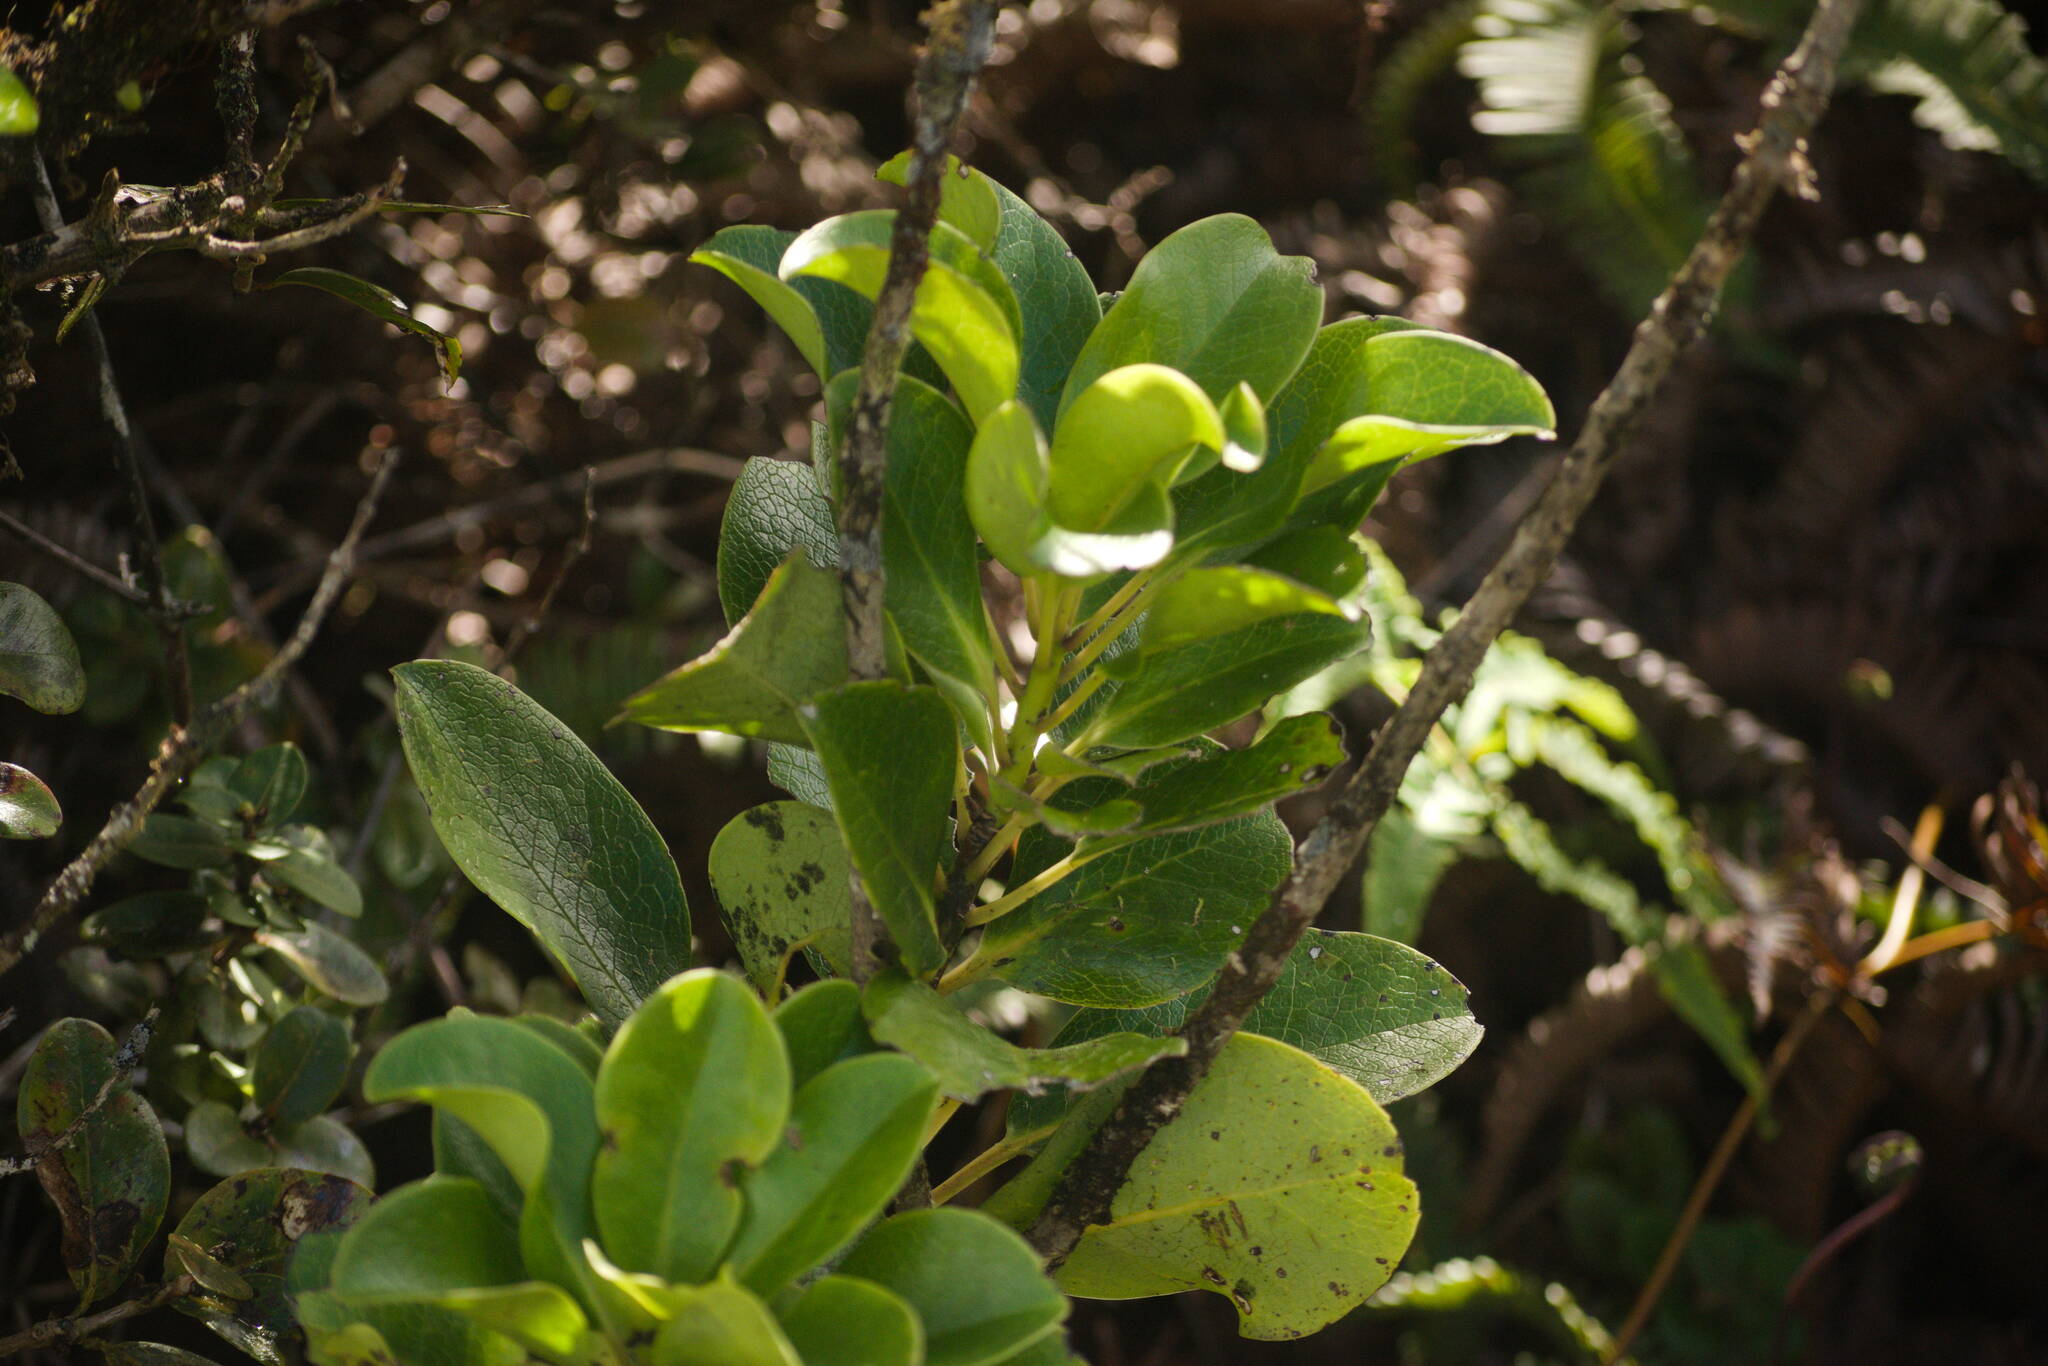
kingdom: Plantae
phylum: Tracheophyta
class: Magnoliopsida
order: Aquifoliales
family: Aquifoliaceae
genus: Ilex
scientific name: Ilex anomala
